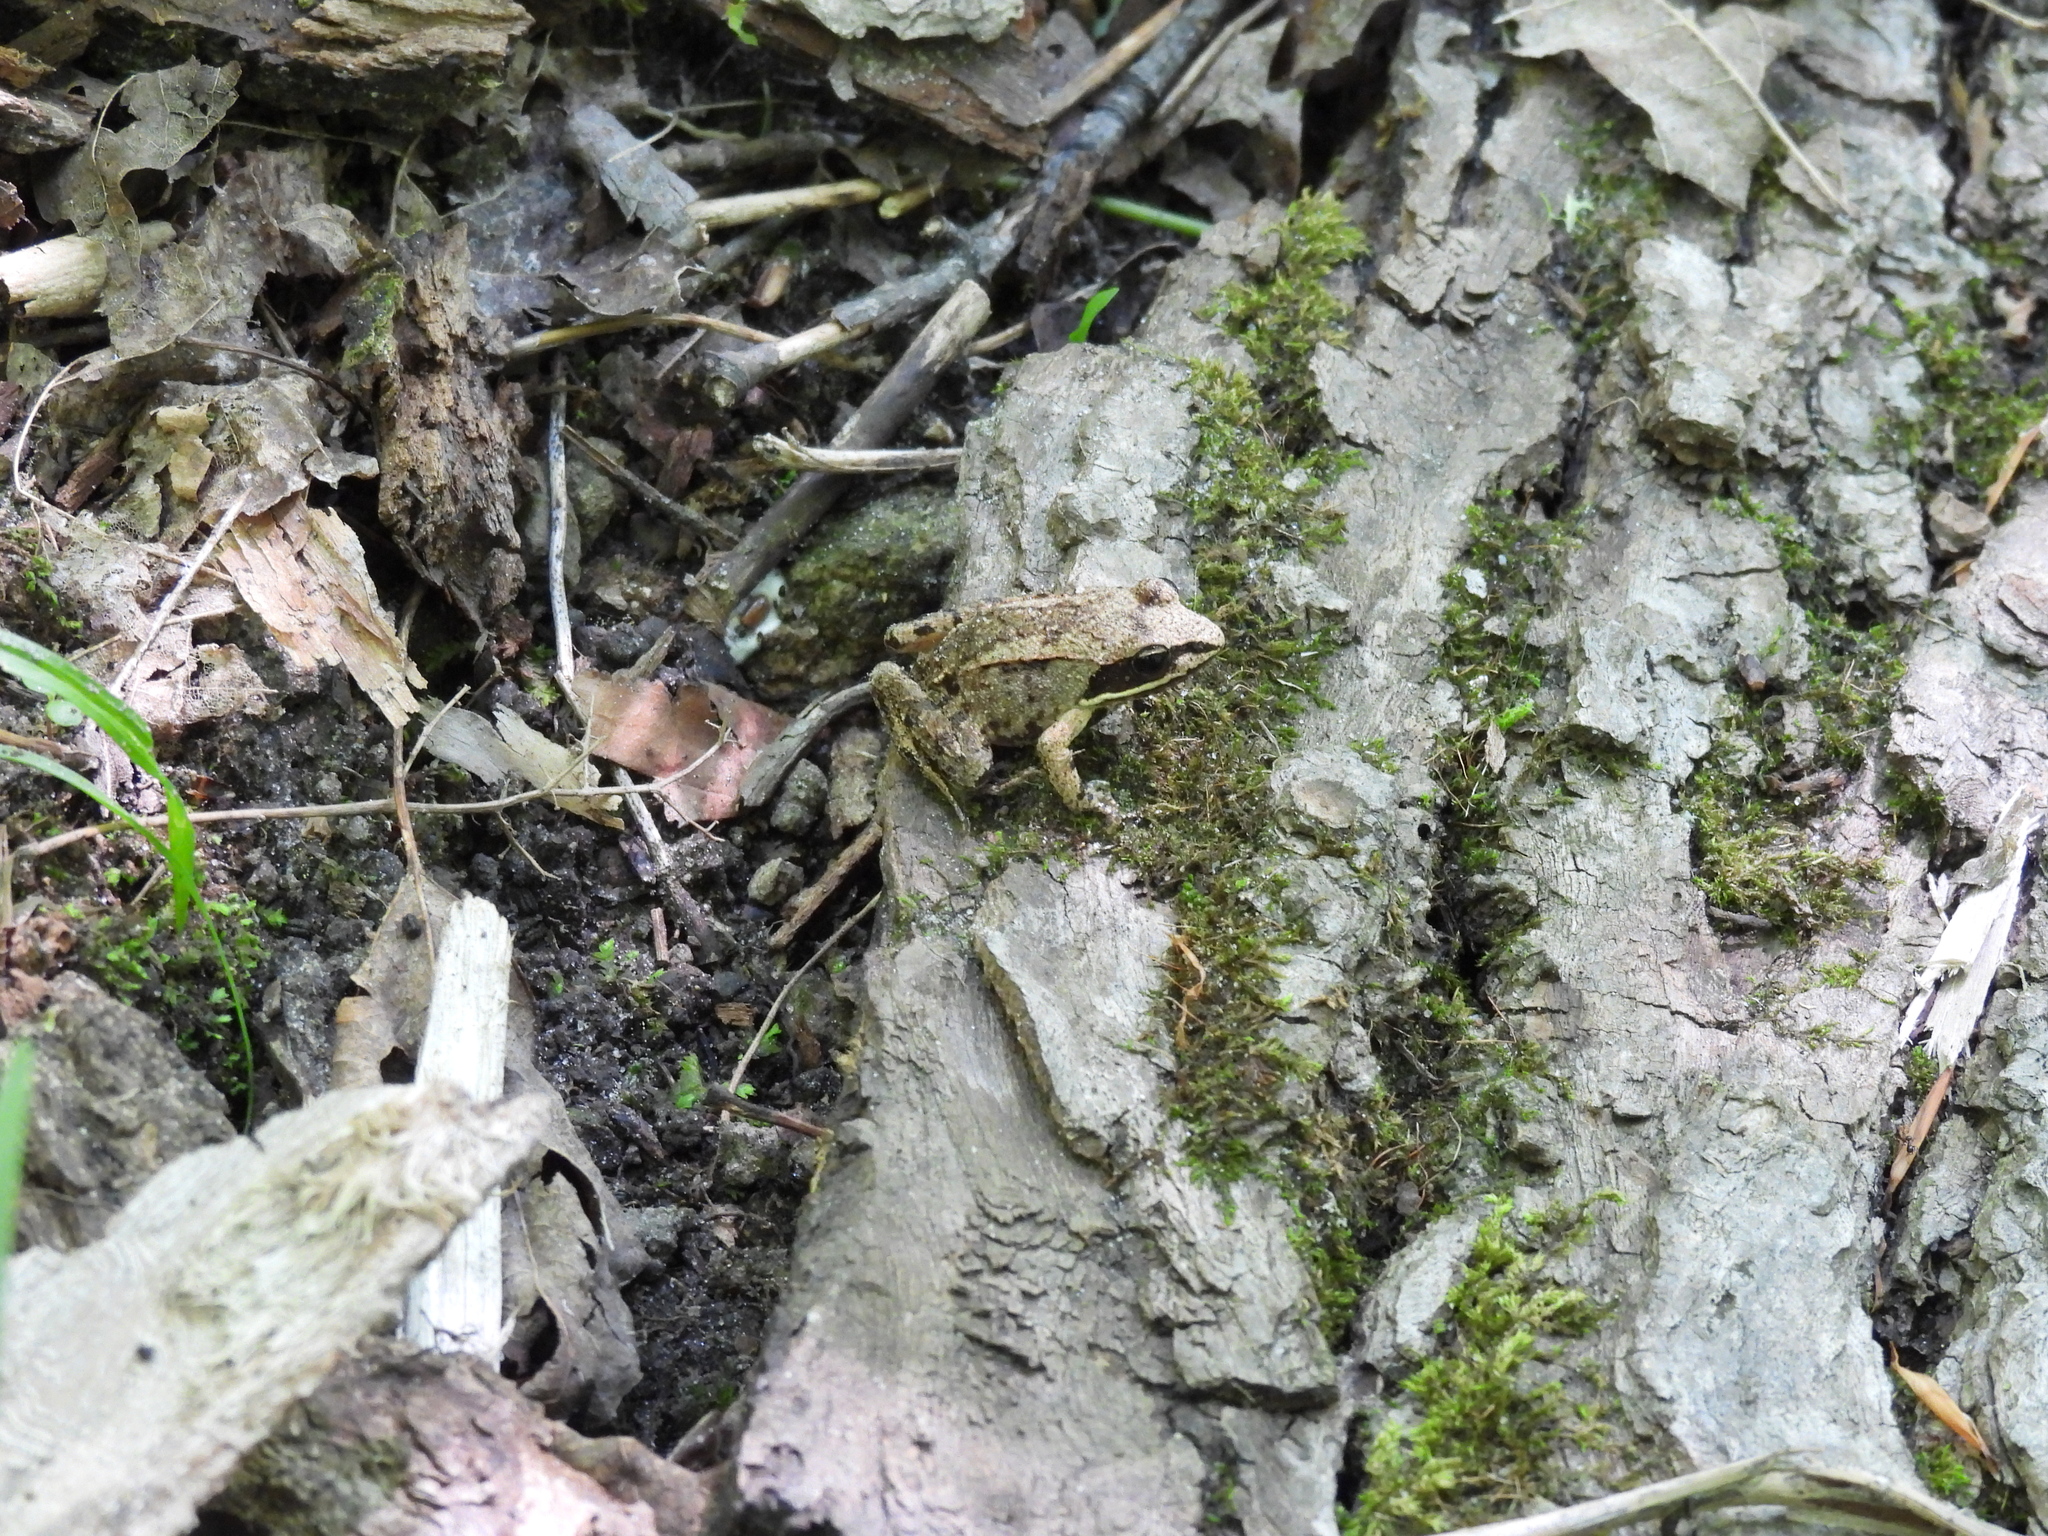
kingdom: Animalia
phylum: Chordata
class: Amphibia
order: Anura
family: Ranidae
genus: Lithobates
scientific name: Lithobates sylvaticus
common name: Wood frog
